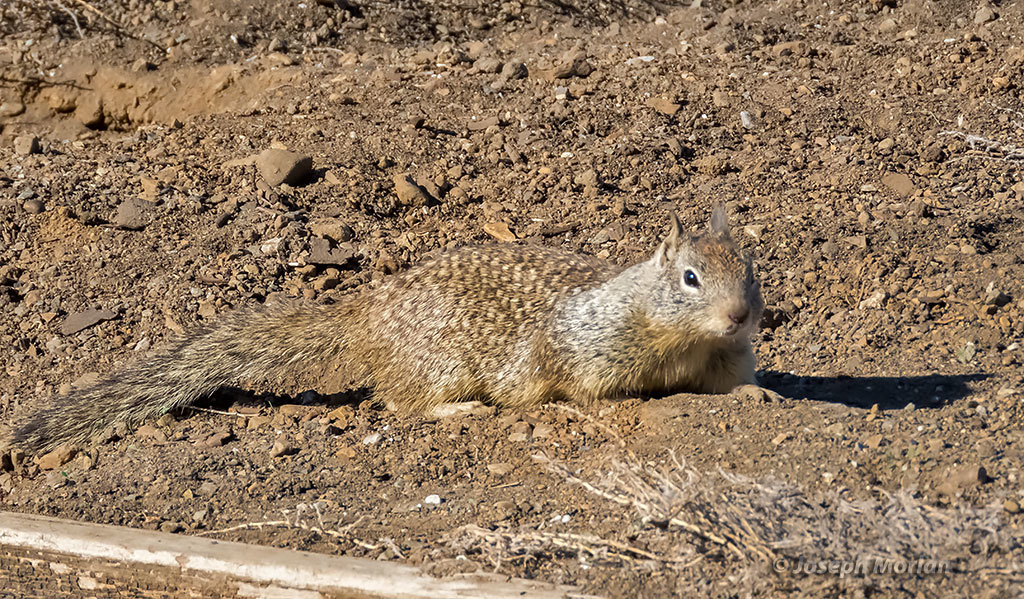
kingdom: Animalia
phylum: Chordata
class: Mammalia
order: Rodentia
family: Sciuridae
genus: Otospermophilus
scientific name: Otospermophilus beecheyi
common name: California ground squirrel
